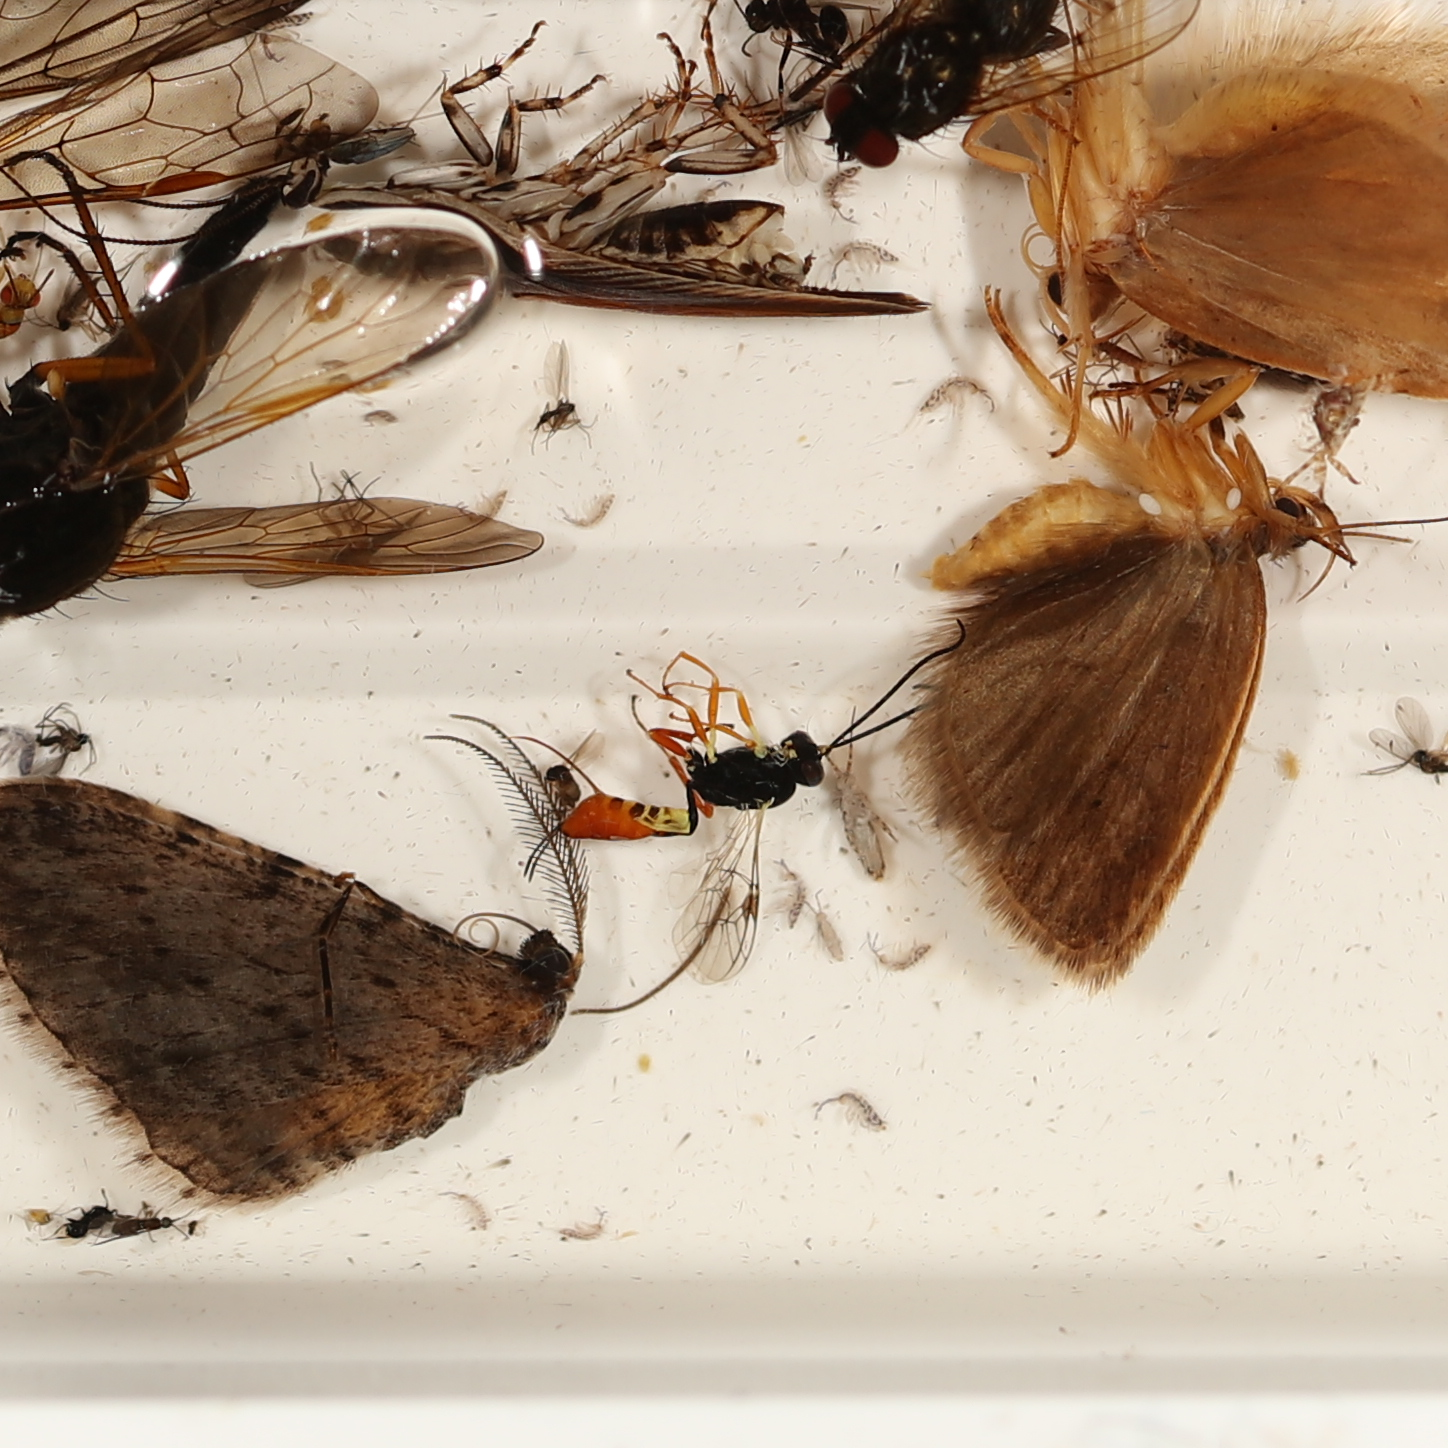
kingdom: Animalia
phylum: Arthropoda
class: Insecta
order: Lepidoptera
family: Geometridae
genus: Phelotis
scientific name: Phelotis cognata
